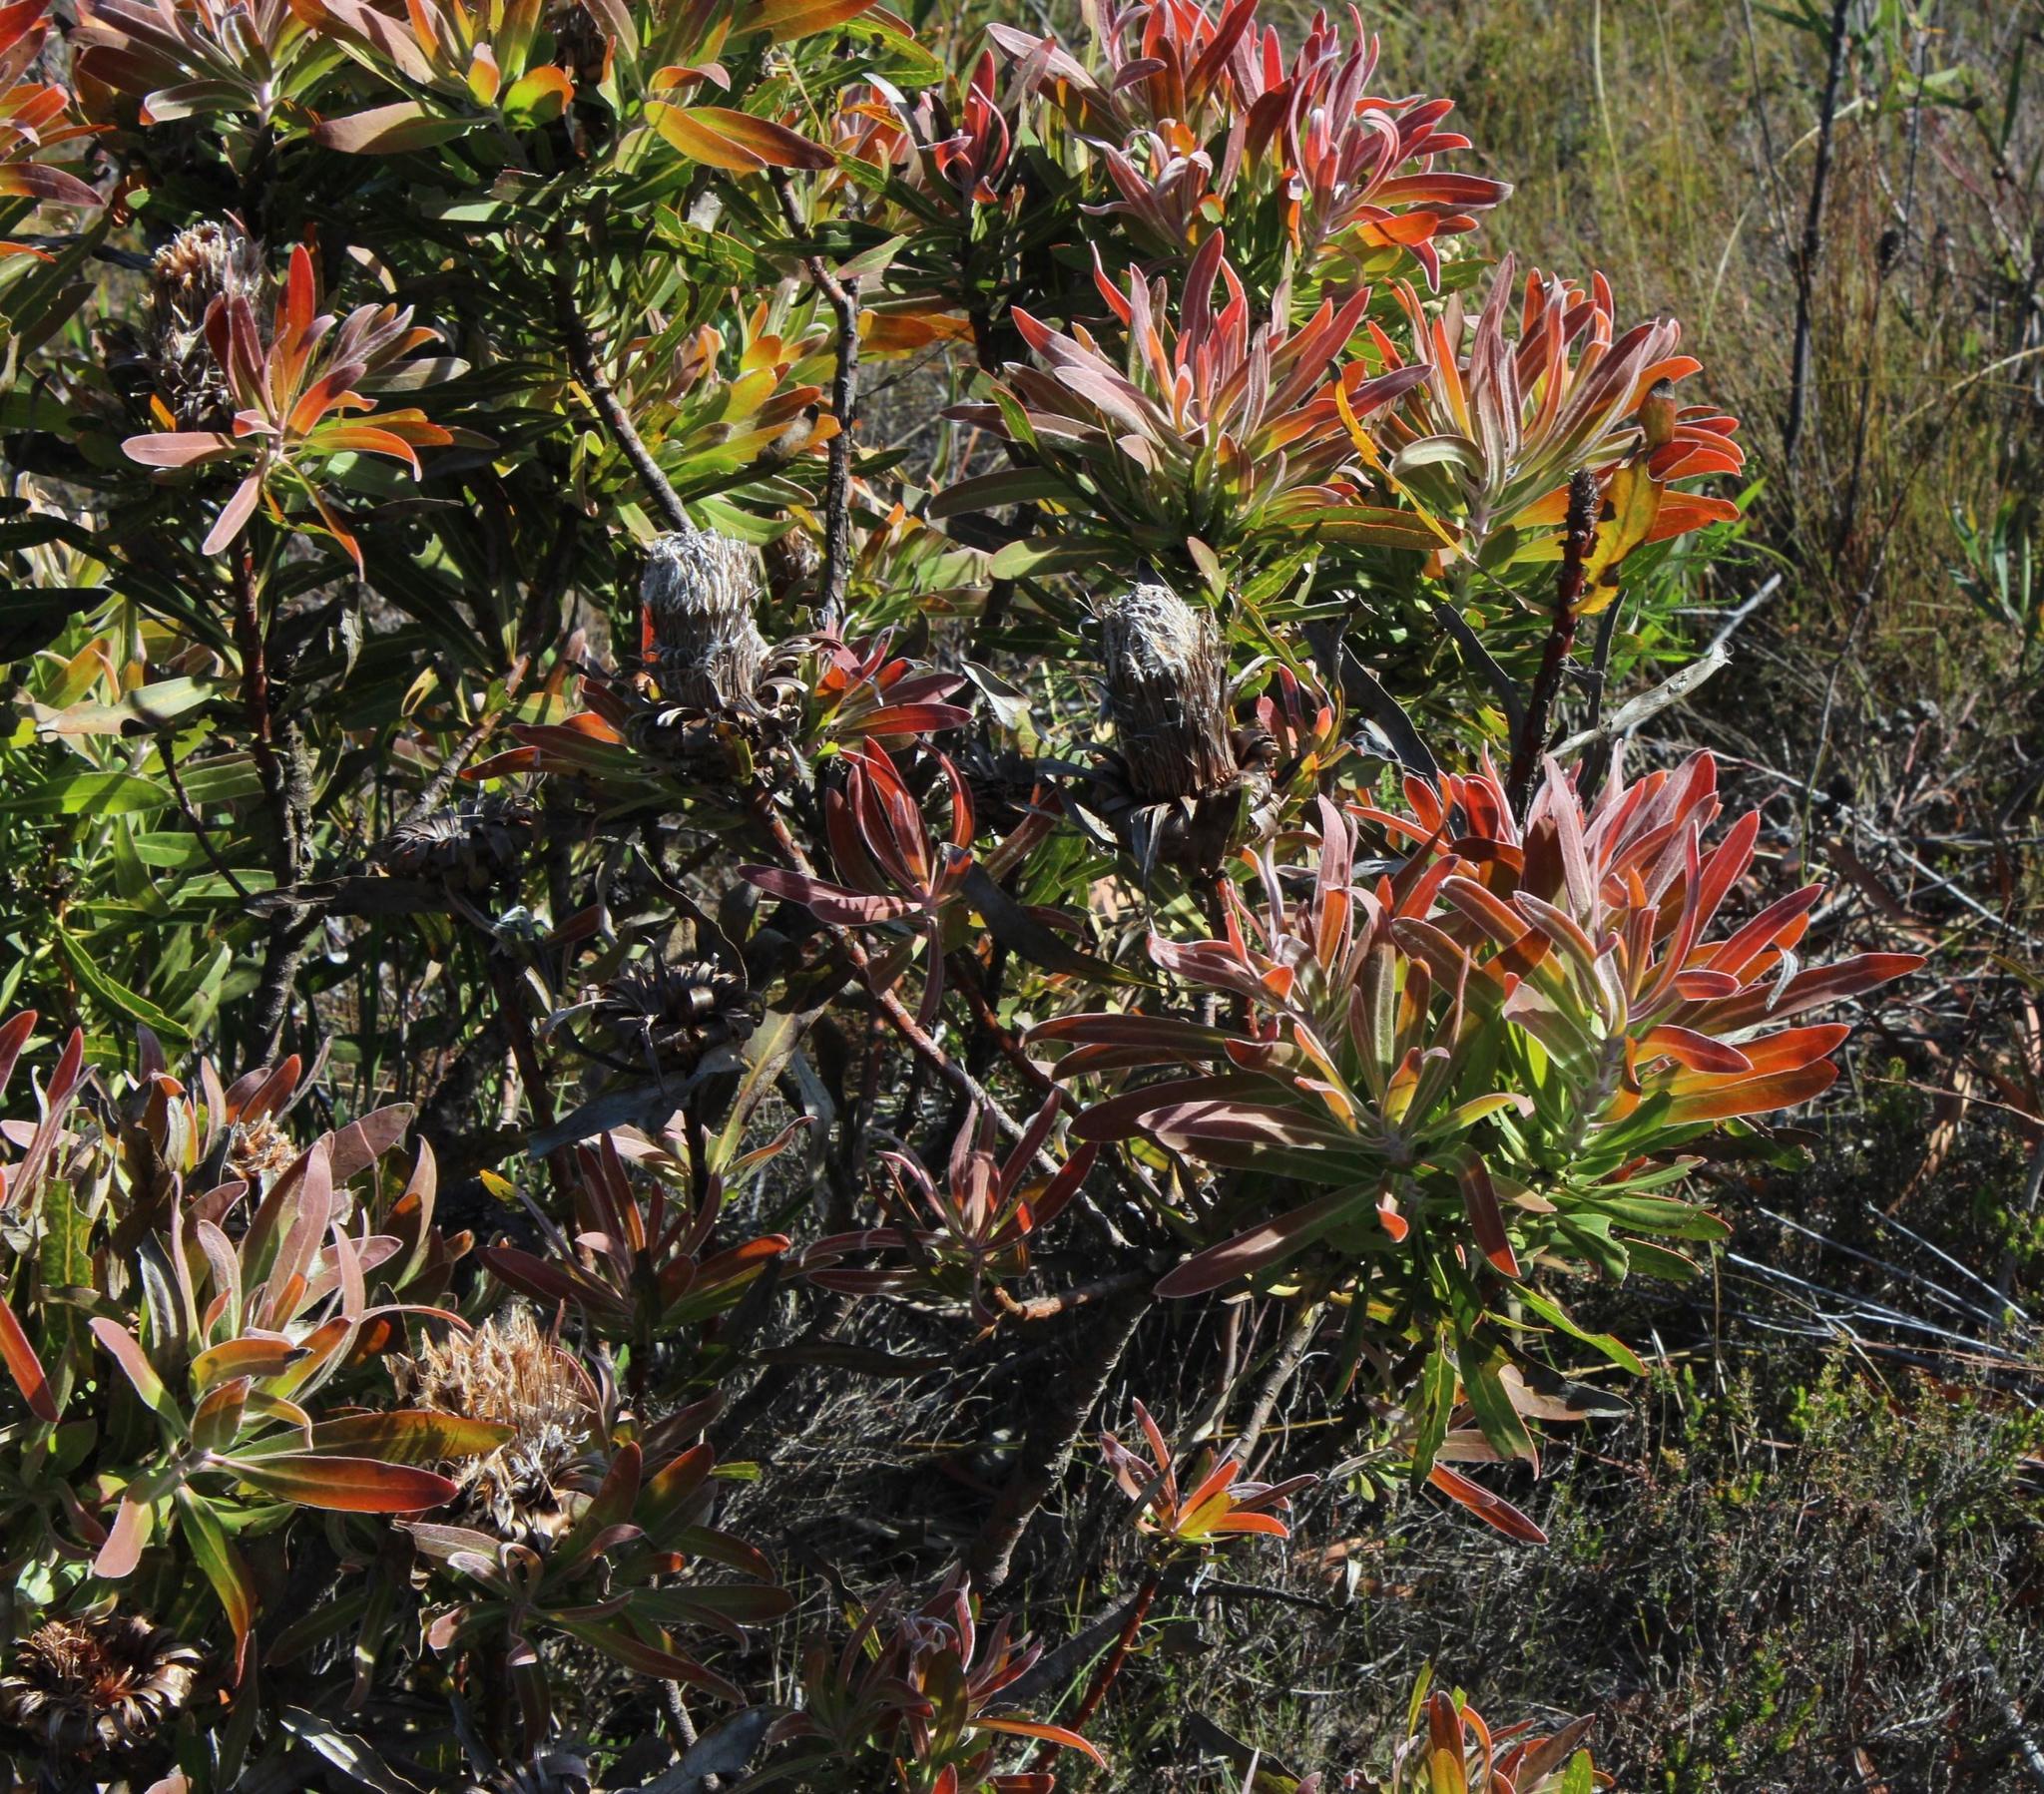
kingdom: Plantae
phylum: Tracheophyta
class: Magnoliopsida
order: Proteales
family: Proteaceae
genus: Protea
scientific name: Protea longifolia
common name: Long-leaf sugarbush
